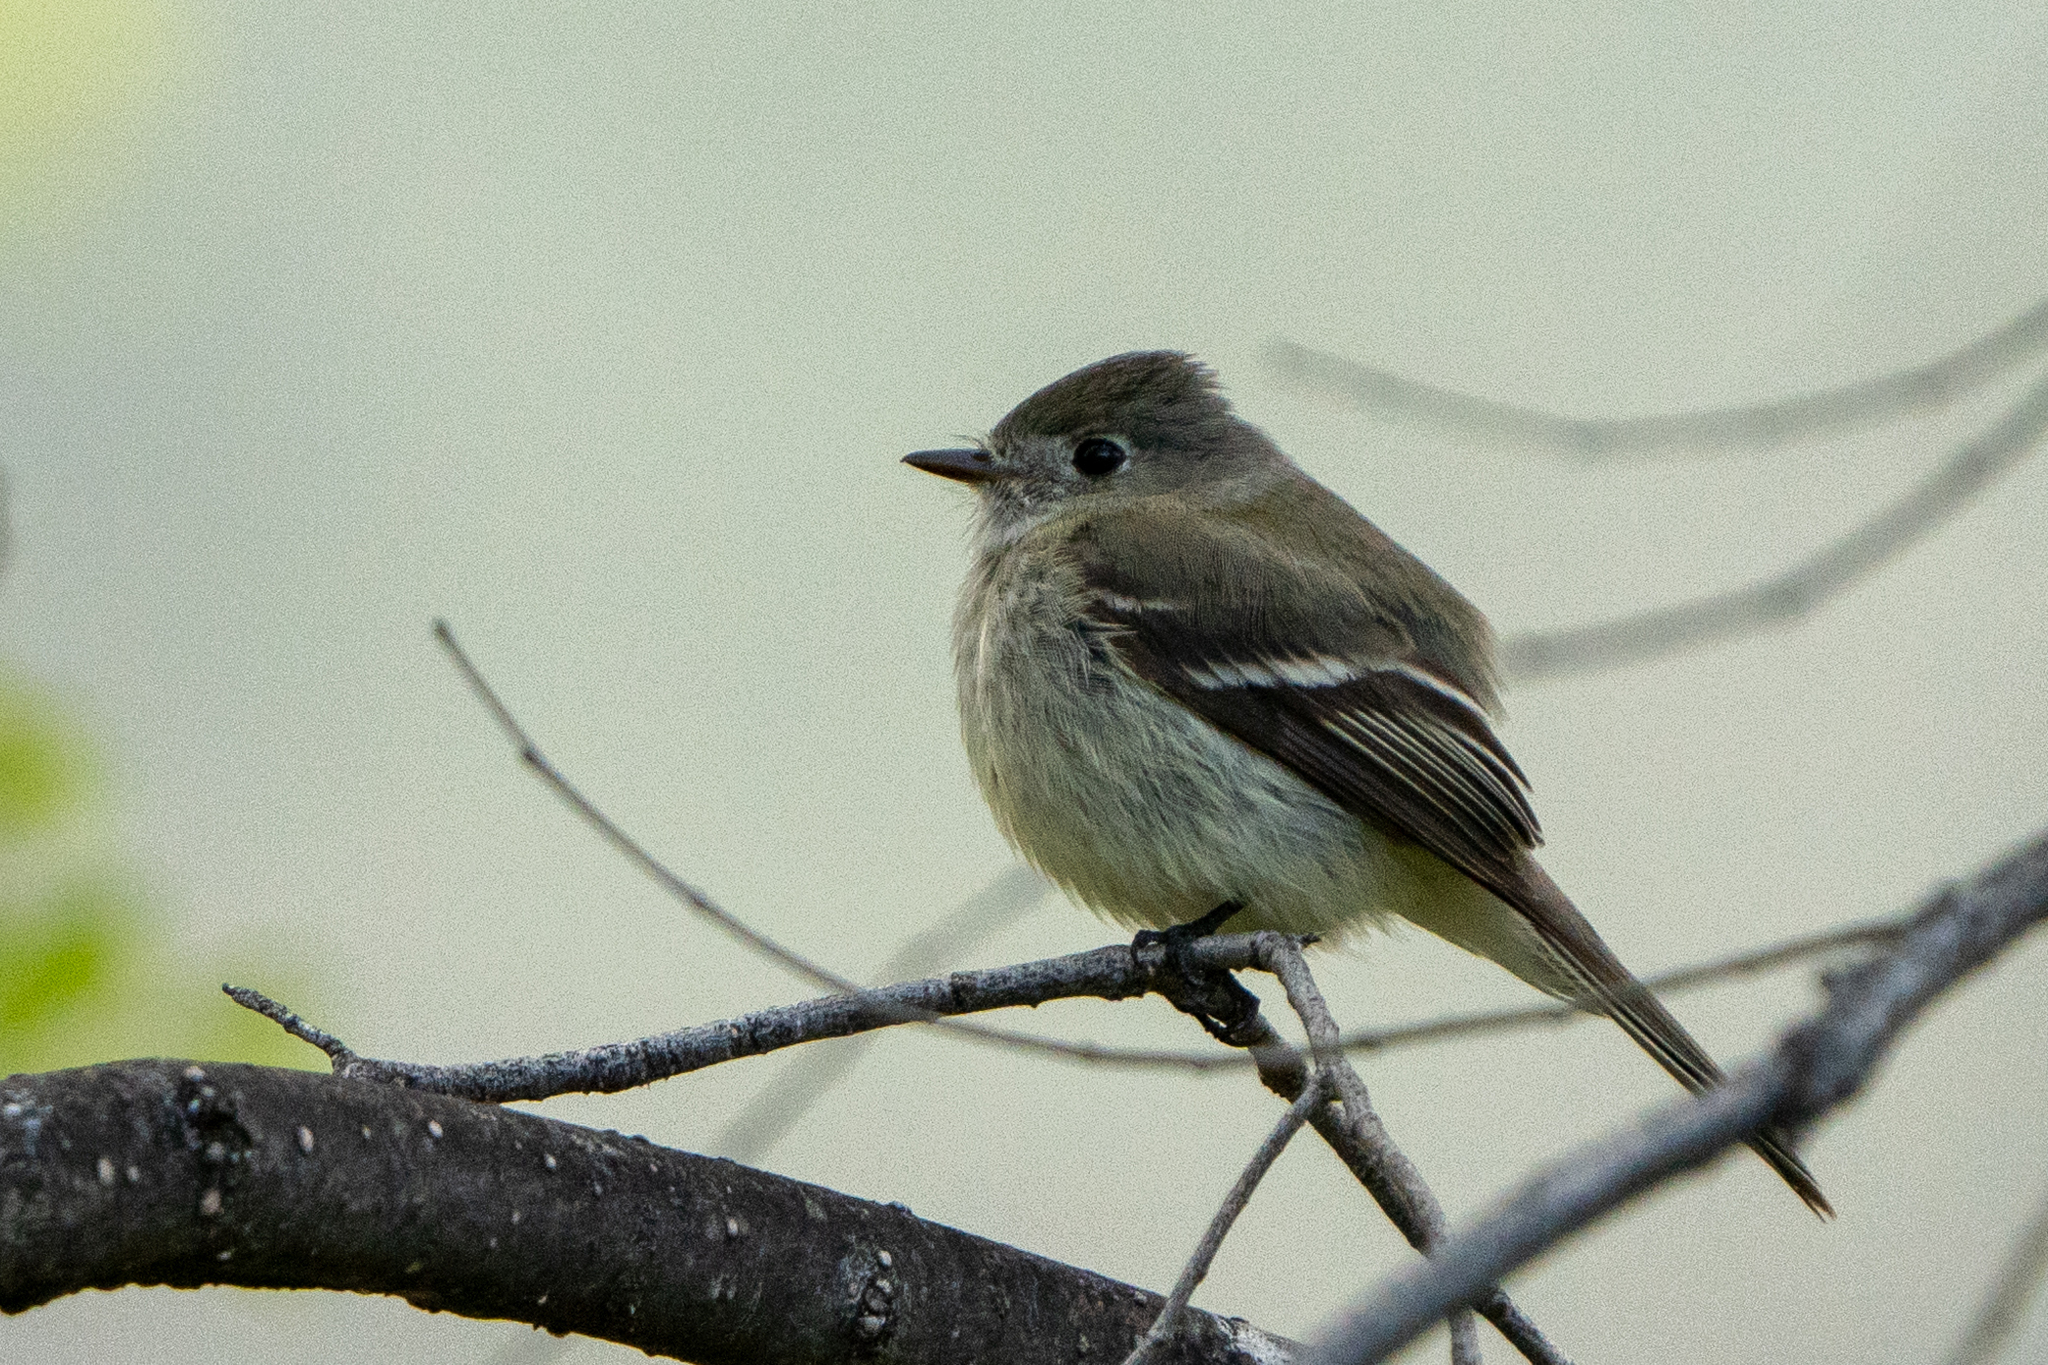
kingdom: Animalia
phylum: Chordata
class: Aves
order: Passeriformes
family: Tyrannidae
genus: Empidonax
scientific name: Empidonax hammondii
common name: Hammond's flycatcher
